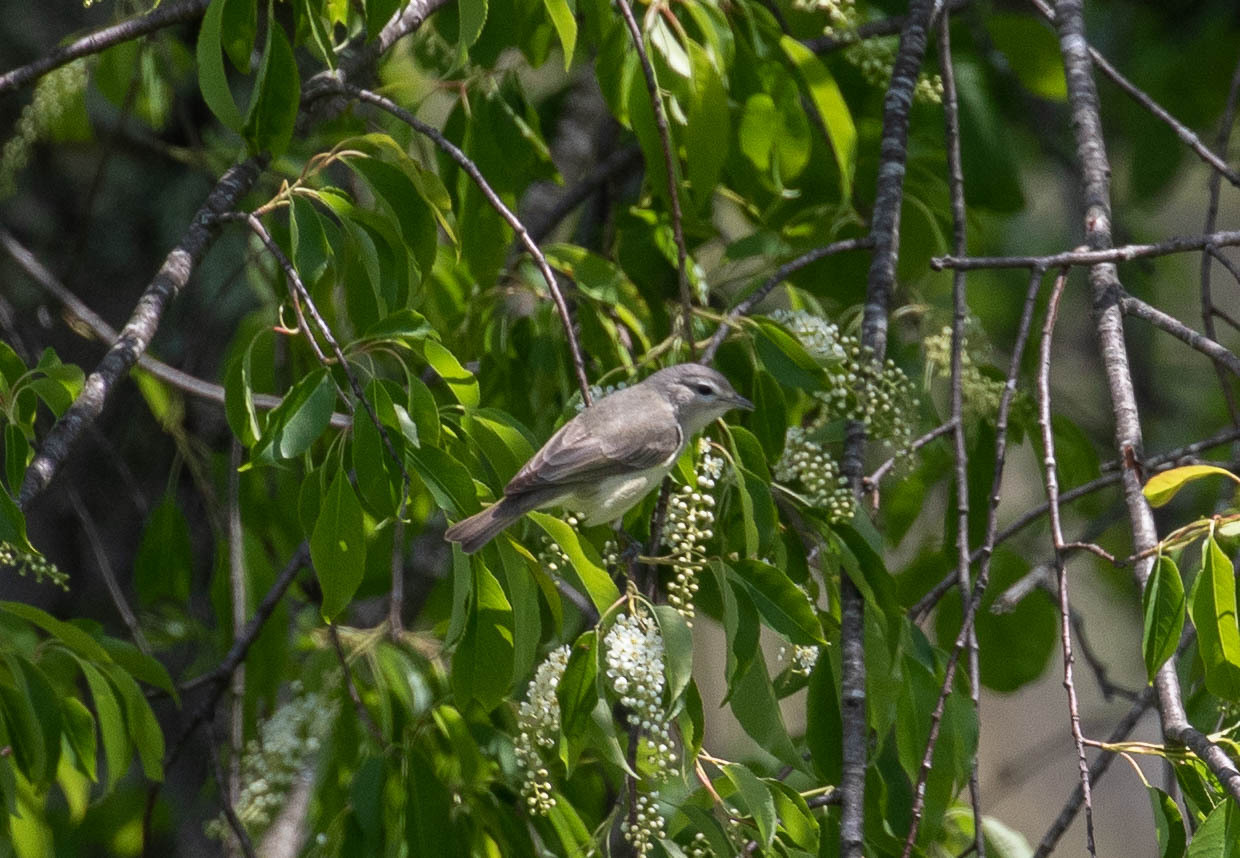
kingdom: Animalia
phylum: Chordata
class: Aves
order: Passeriformes
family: Vireonidae
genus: Vireo
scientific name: Vireo gilvus
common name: Warbling vireo
